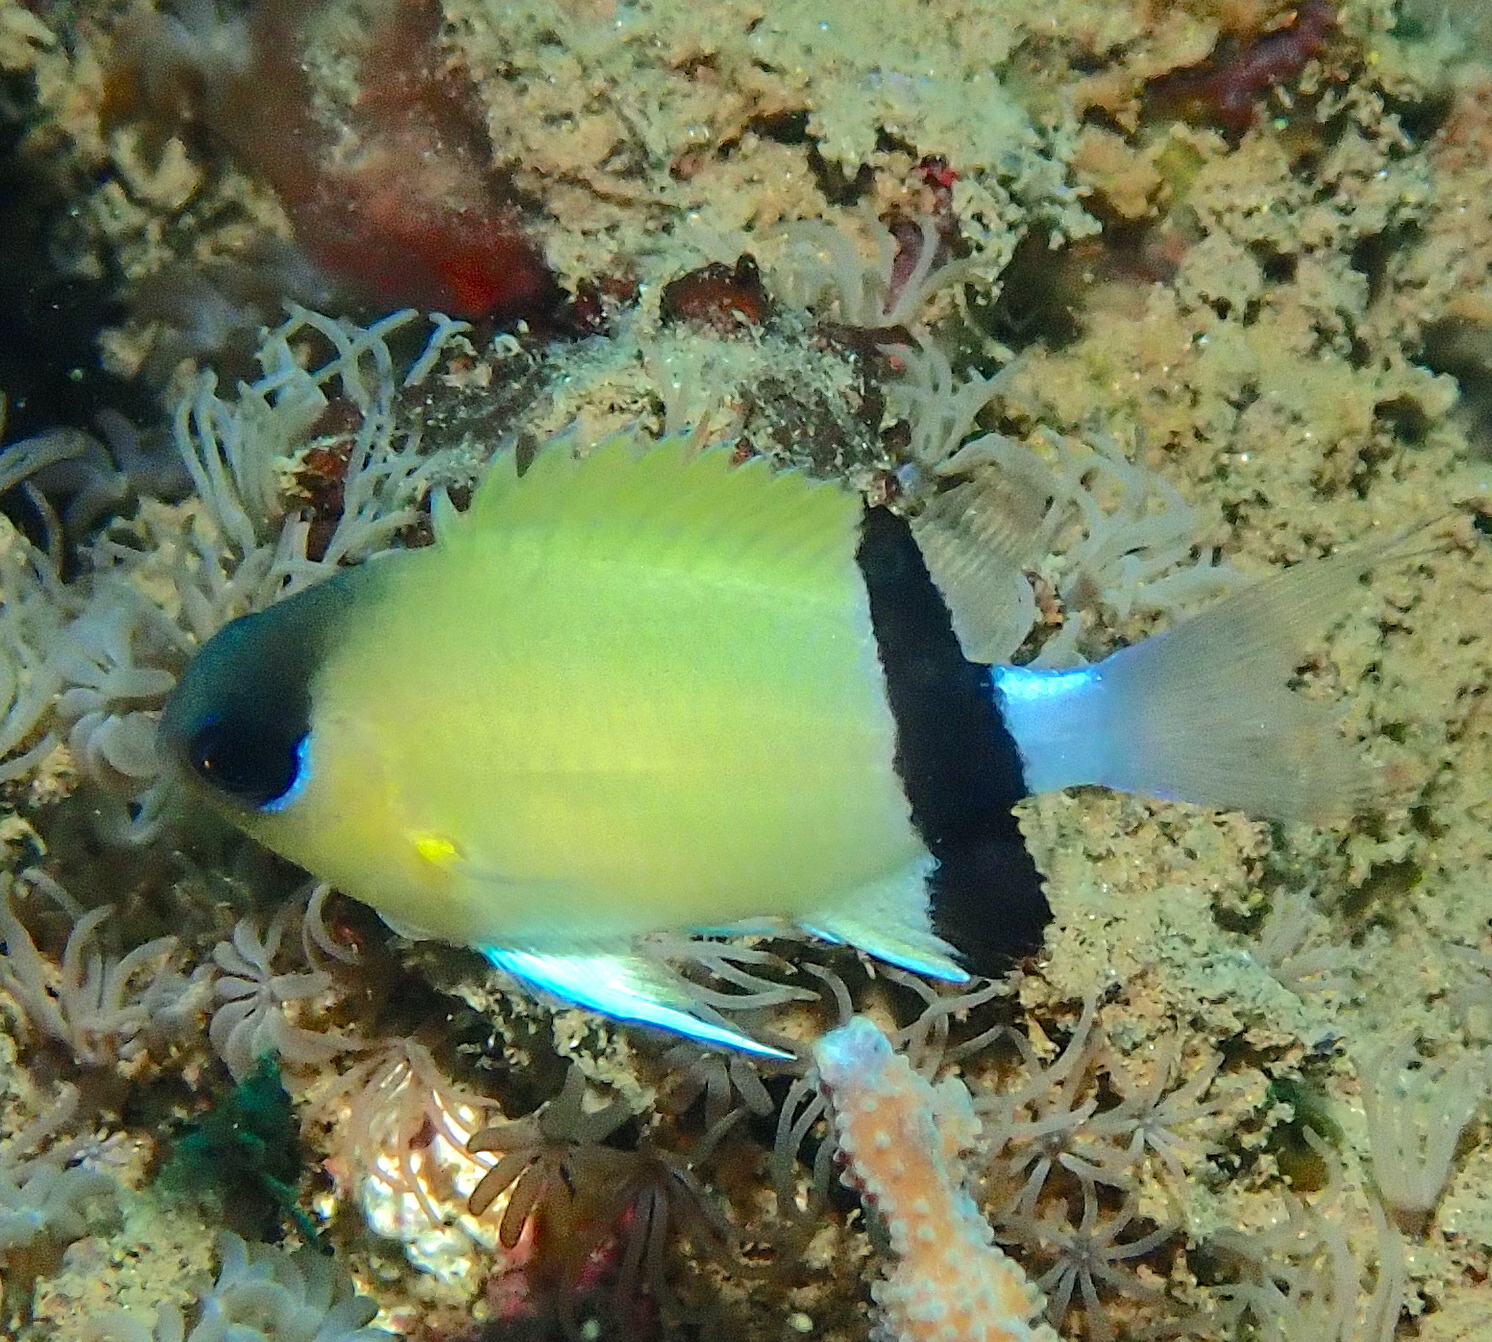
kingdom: Animalia
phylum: Chordata
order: Perciformes
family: Pomacentridae
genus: Chromis
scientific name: Chromis retrofasciata
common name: Black-bar chromis
